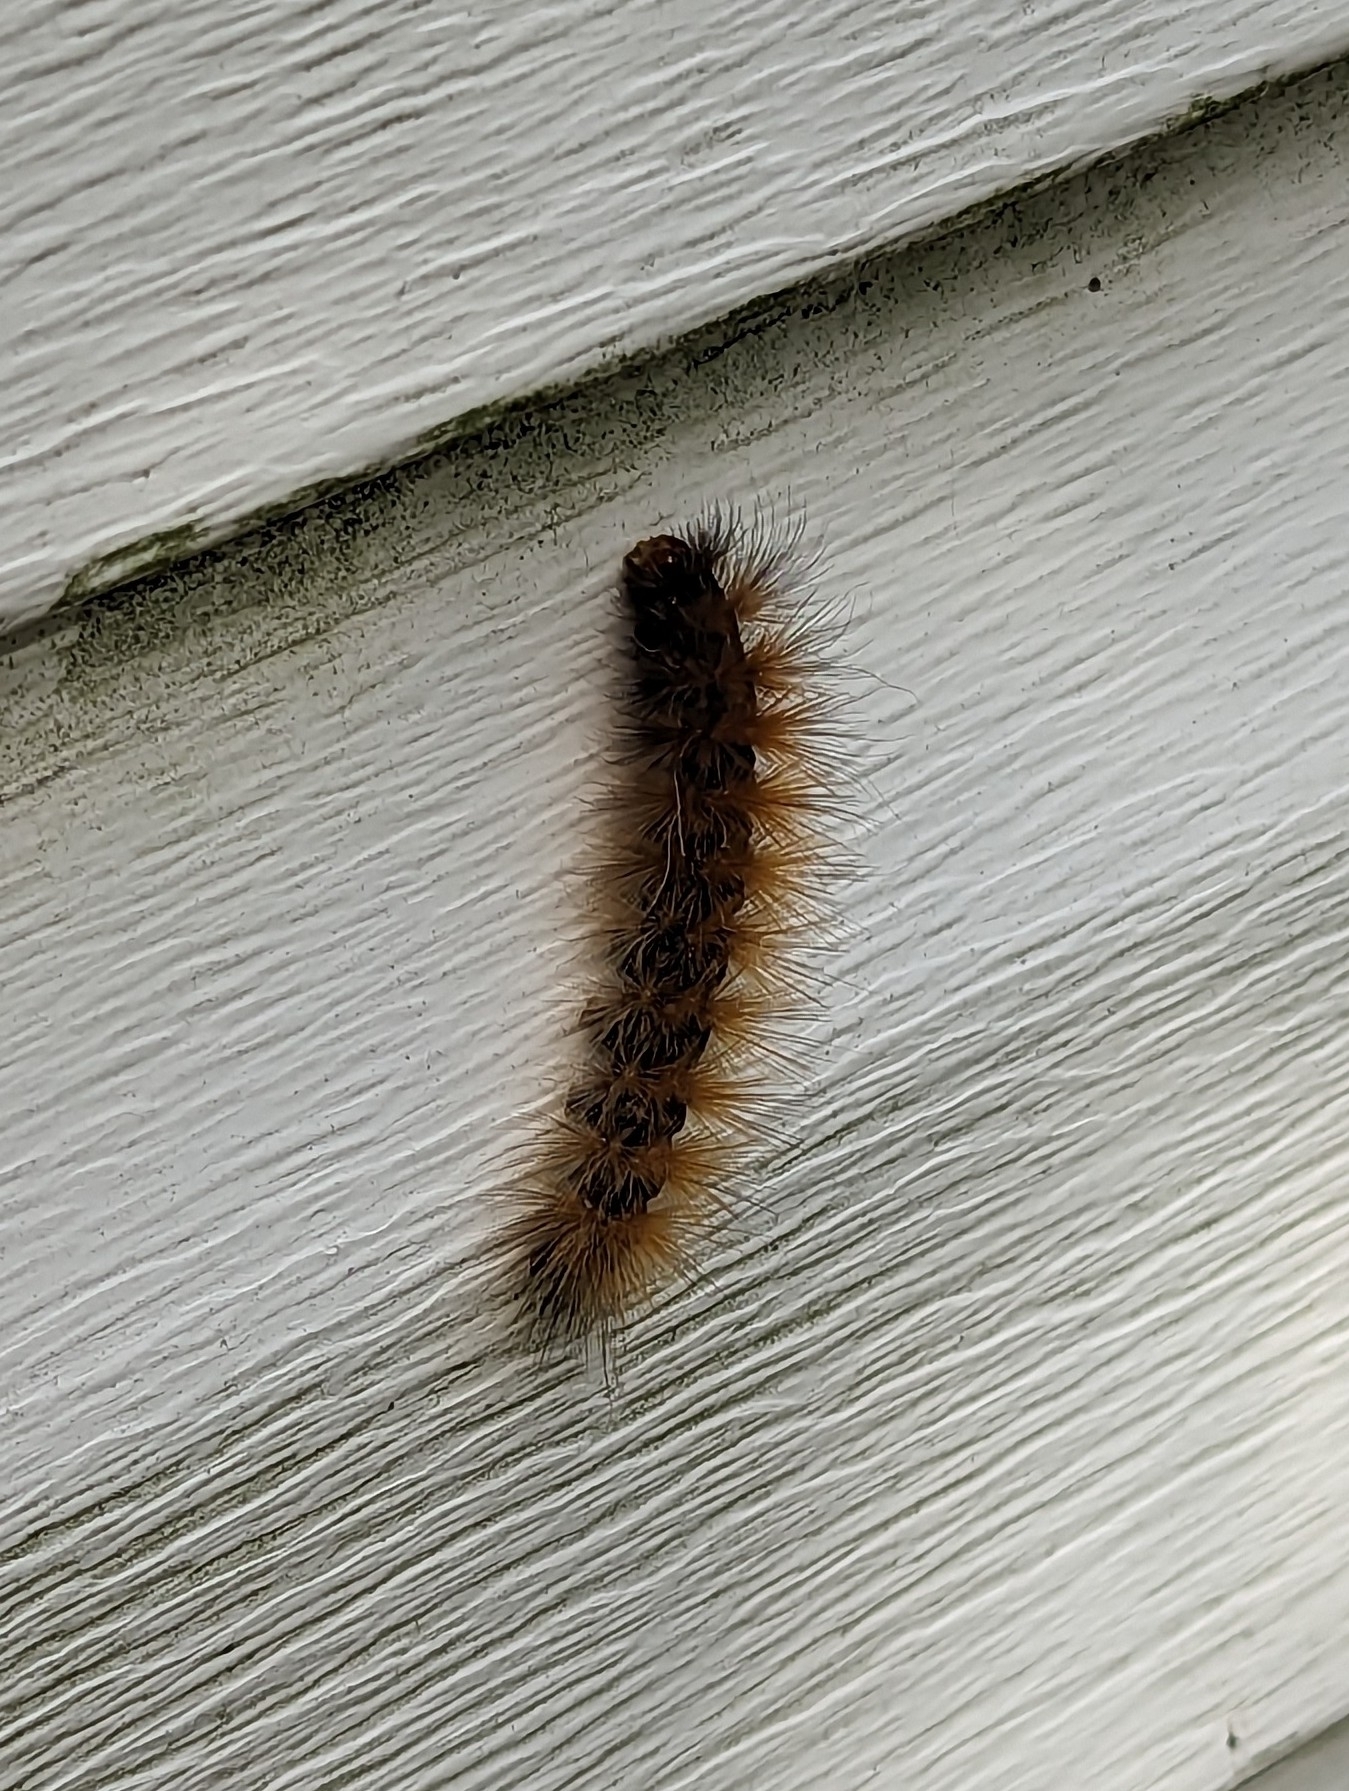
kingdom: Animalia
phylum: Arthropoda
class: Insecta
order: Lepidoptera
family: Erebidae
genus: Spilosoma
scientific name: Spilosoma virginica
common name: Virginia tiger moth
